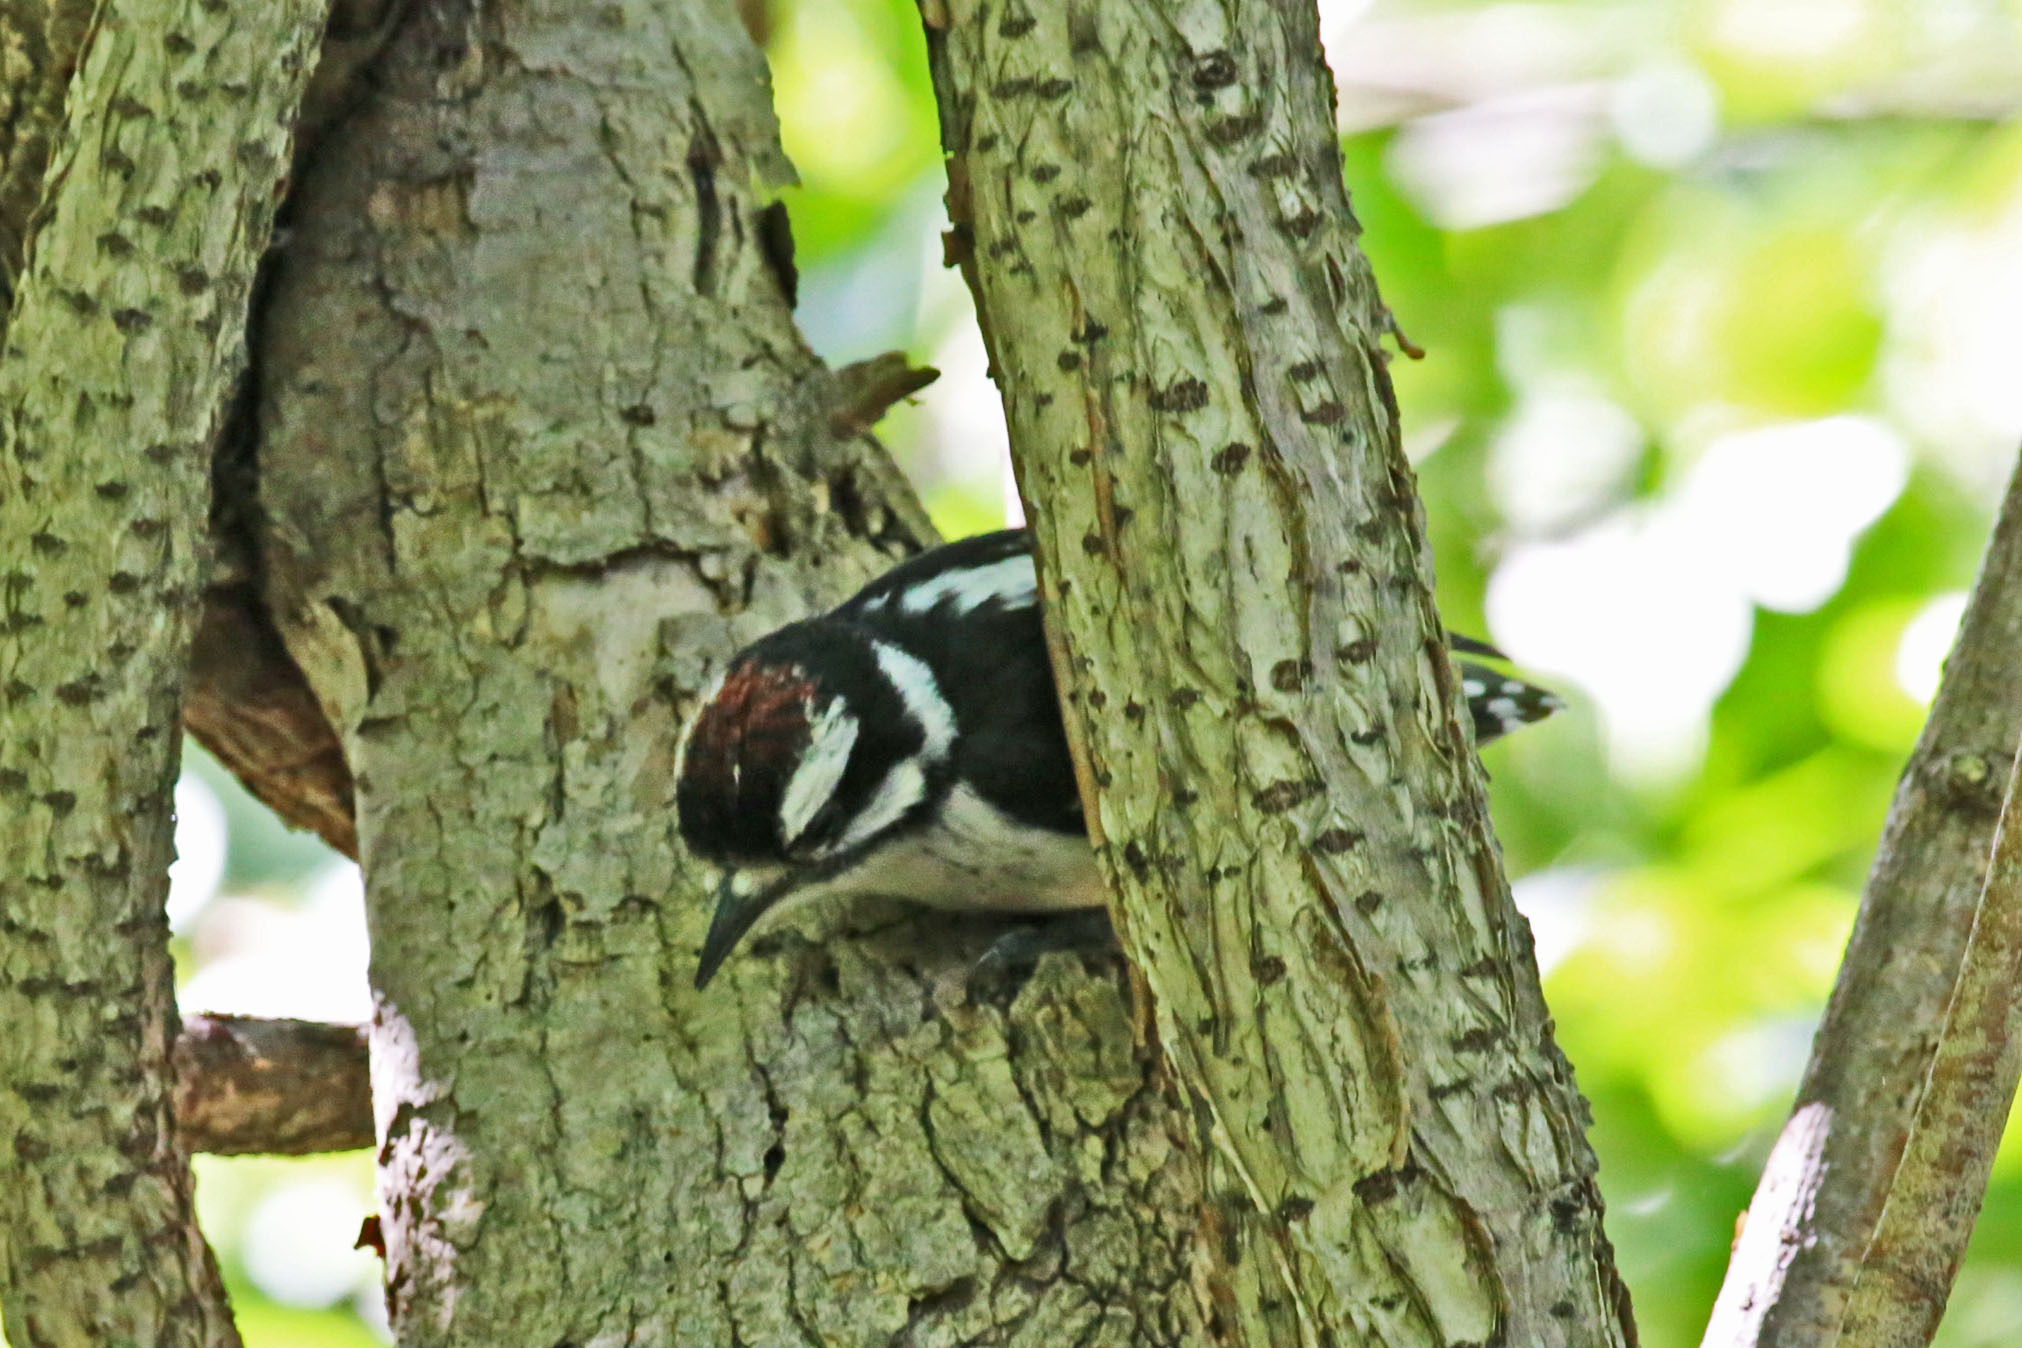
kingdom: Animalia
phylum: Chordata
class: Aves
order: Piciformes
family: Picidae
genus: Dryobates
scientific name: Dryobates pubescens
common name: Downy woodpecker
